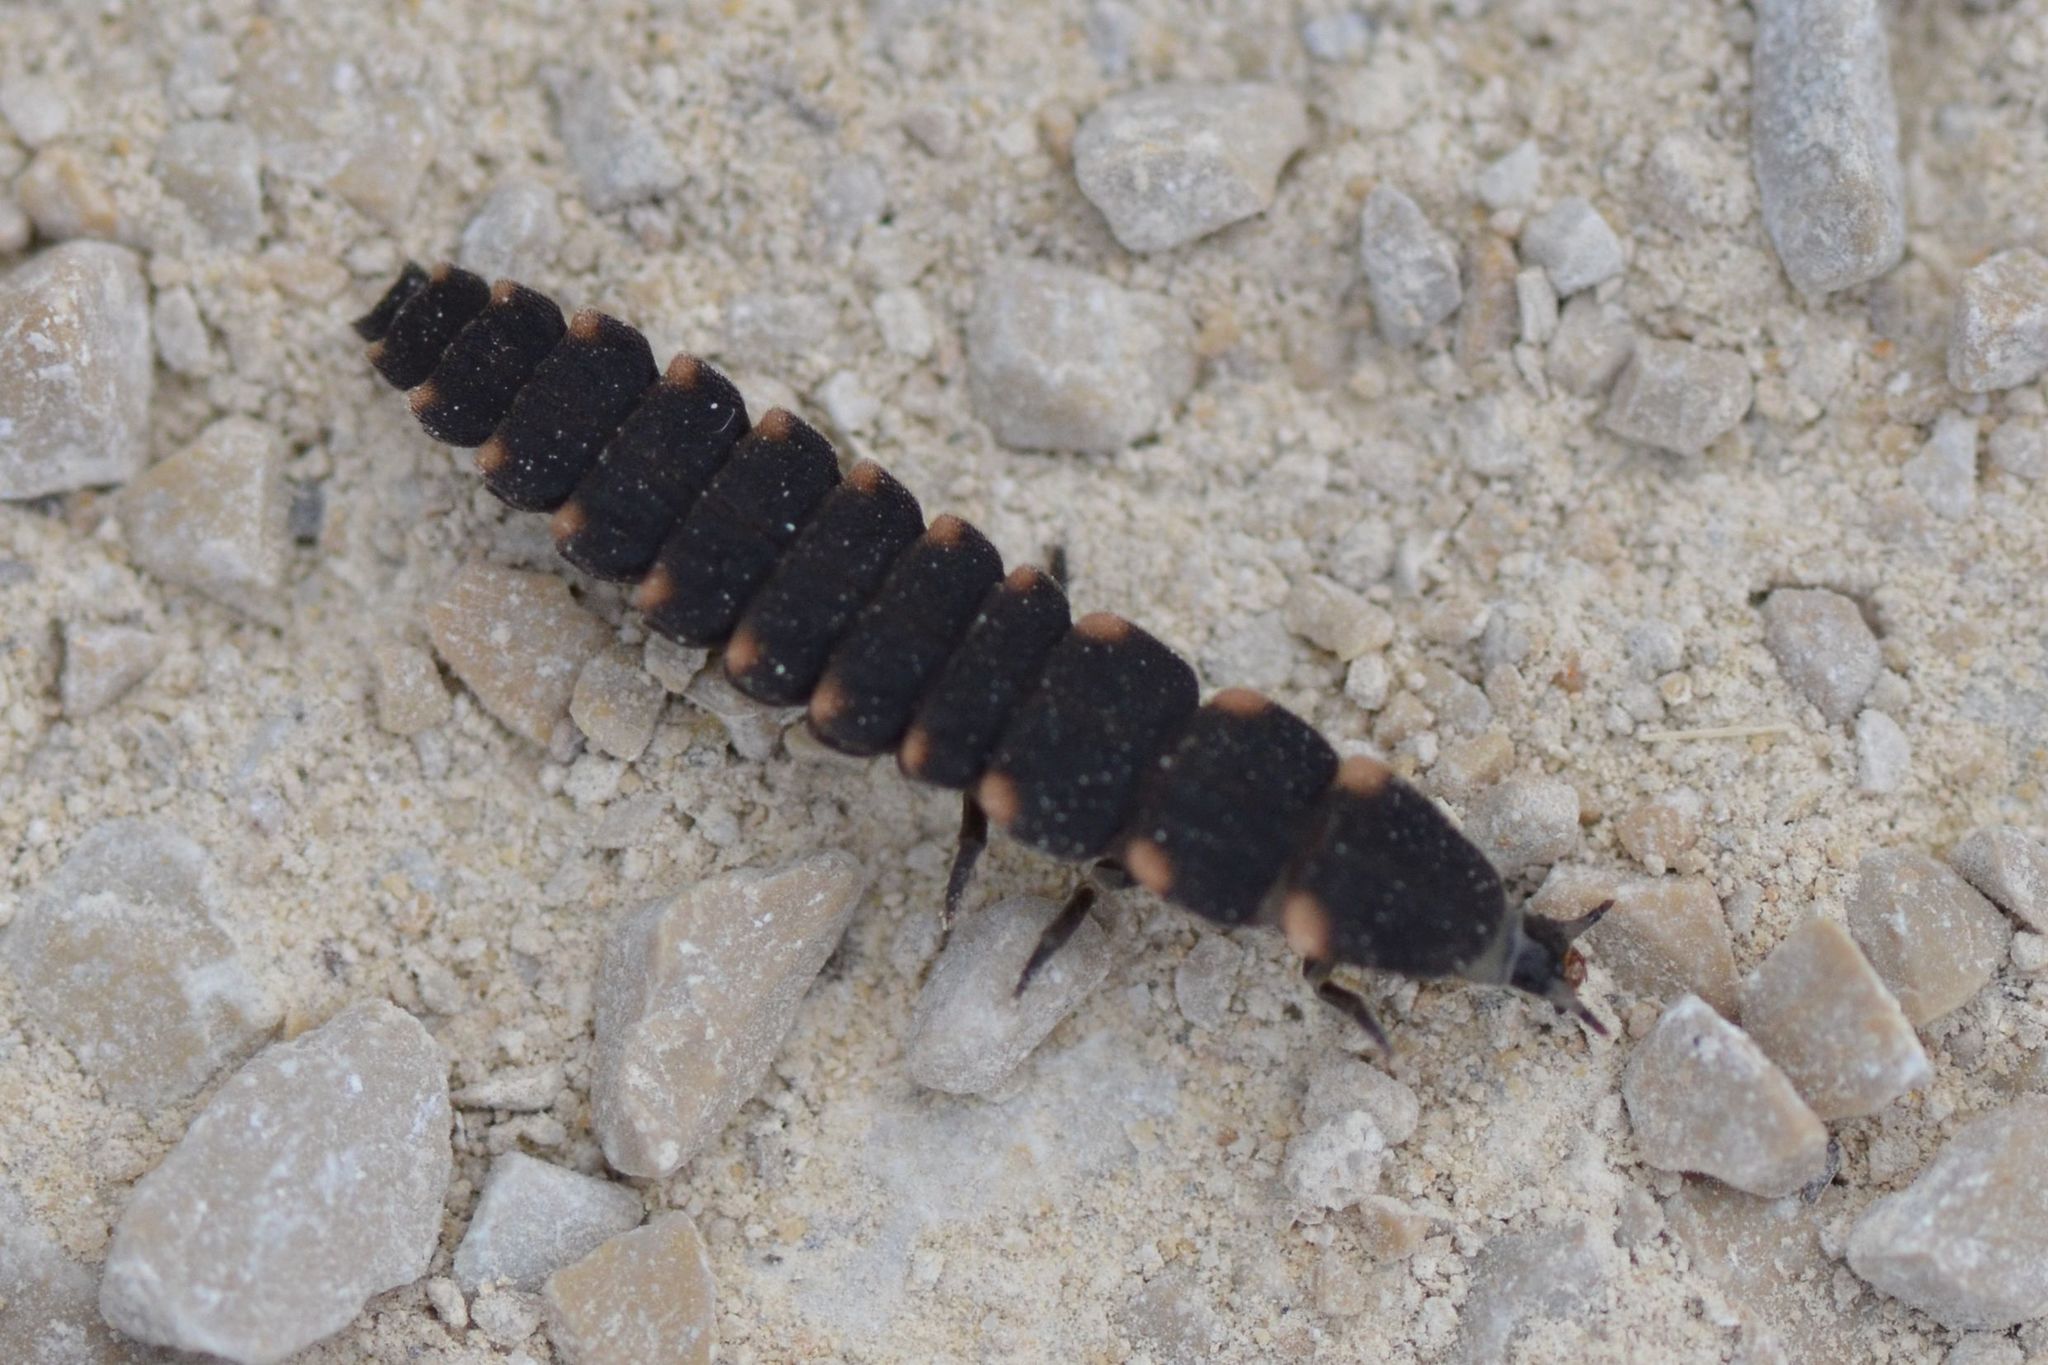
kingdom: Animalia
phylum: Arthropoda
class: Insecta
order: Coleoptera
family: Lampyridae
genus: Lampyris
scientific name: Lampyris noctiluca
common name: Glow-worm
